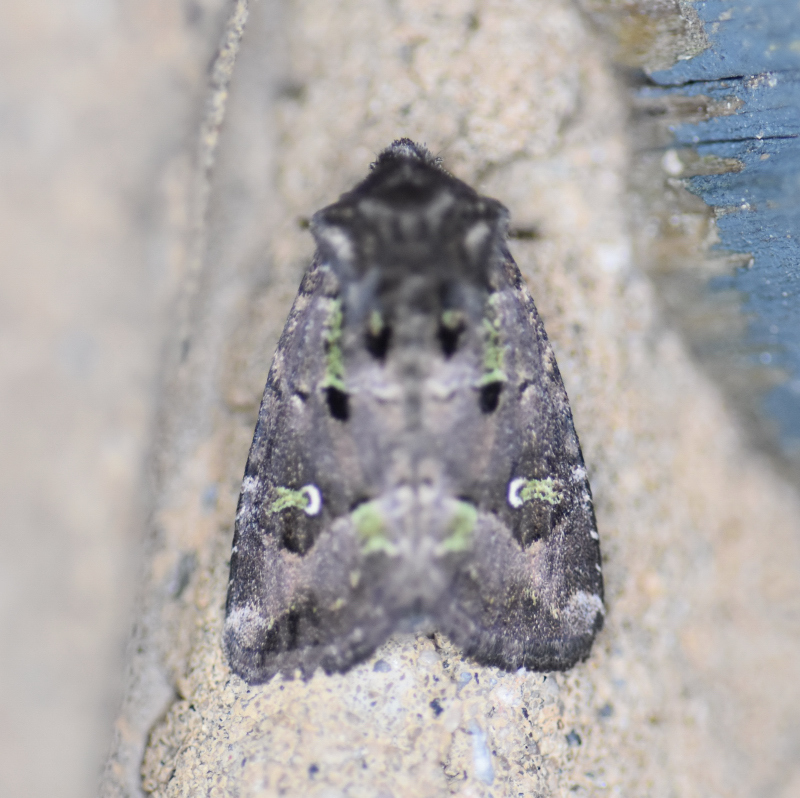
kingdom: Animalia
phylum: Arthropoda
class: Insecta
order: Lepidoptera
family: Noctuidae
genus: Lacinipolia
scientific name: Lacinipolia renigera
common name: Kidney-spotted minor
